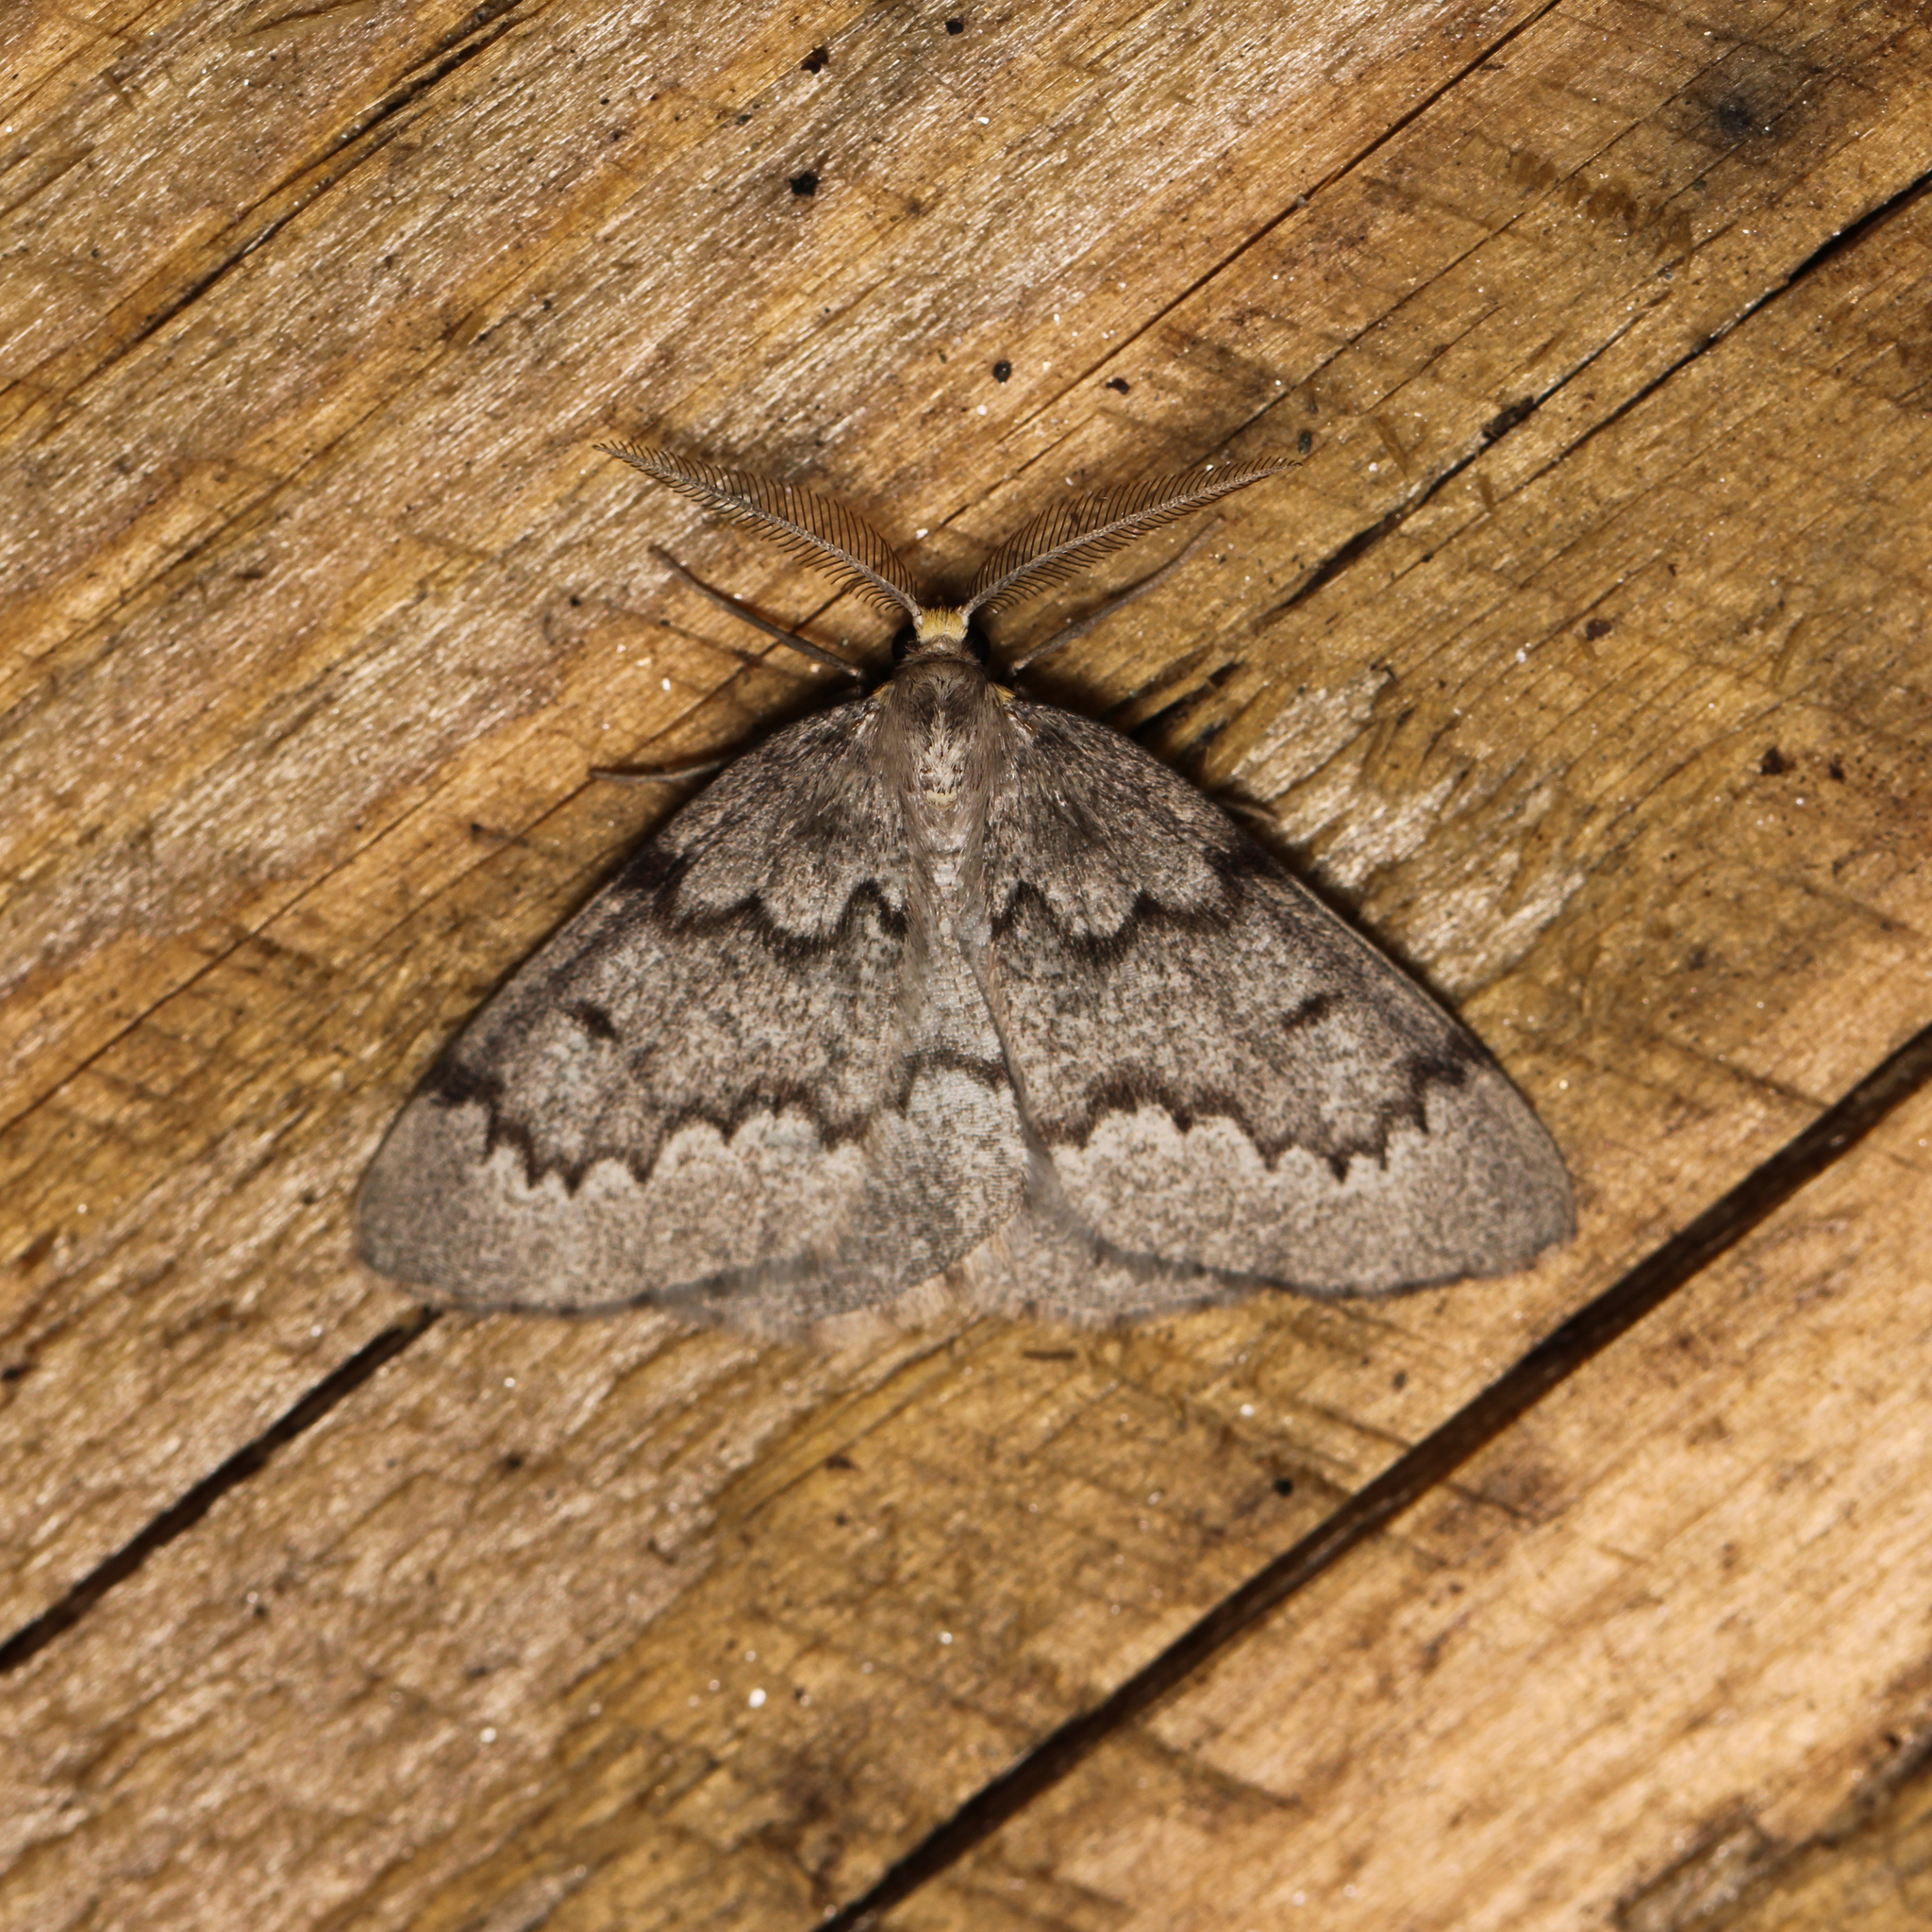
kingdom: Animalia
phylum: Arthropoda
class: Insecta
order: Lepidoptera
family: Geometridae
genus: Nepytia
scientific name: Nepytia canosaria
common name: False hemlock looper
